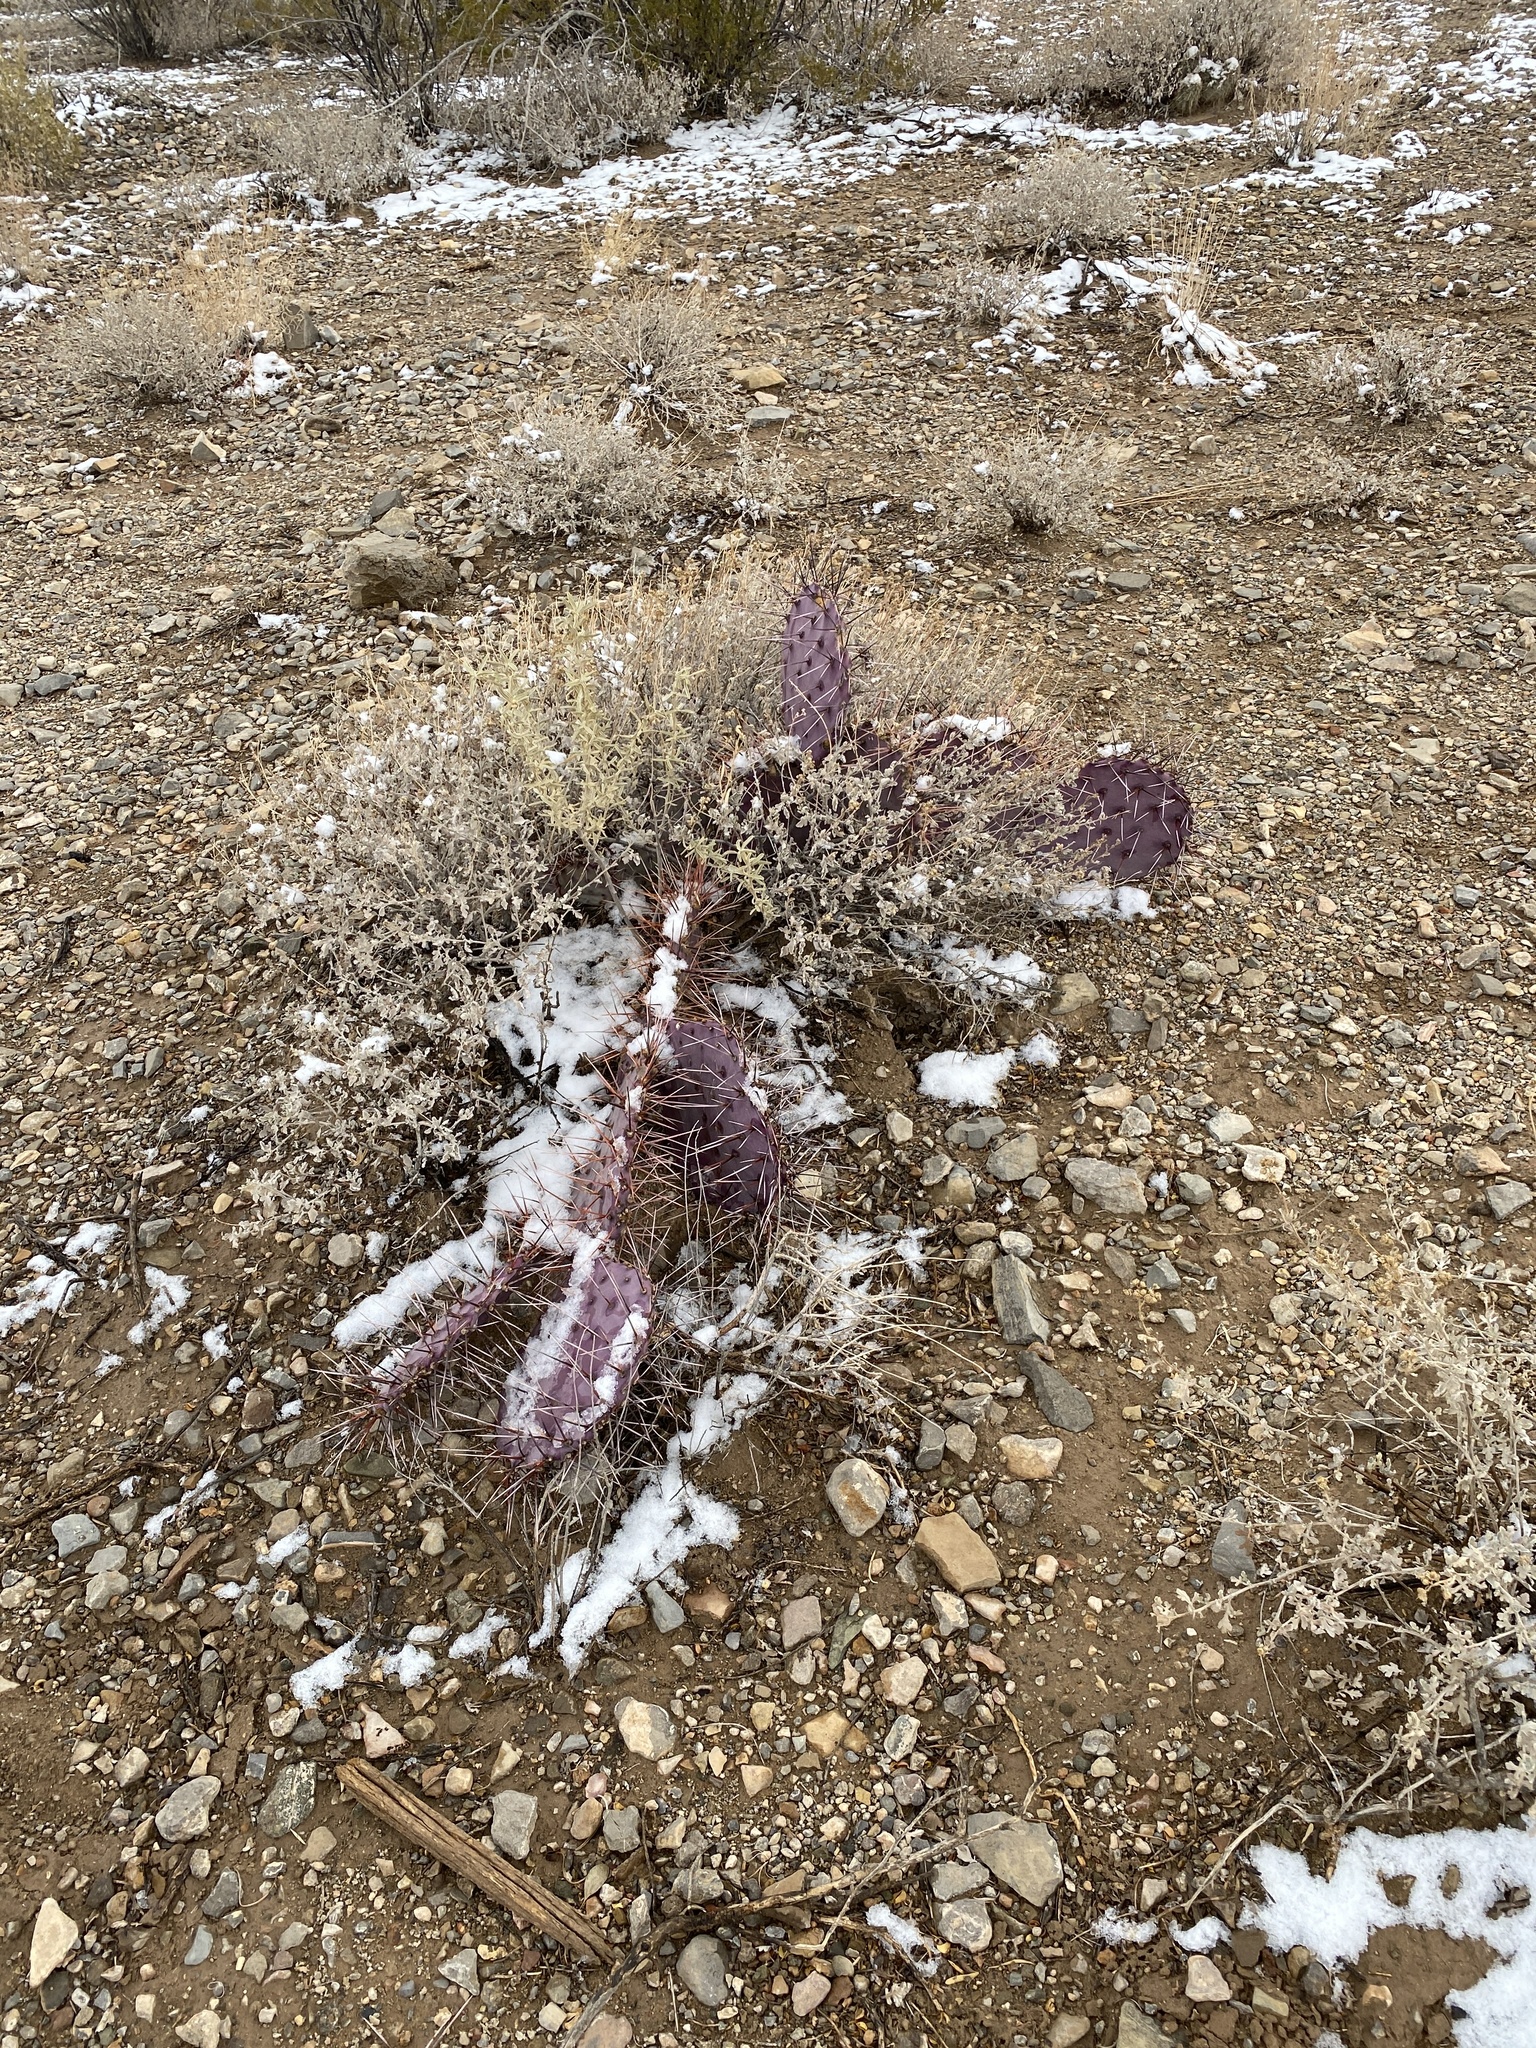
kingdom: Plantae
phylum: Tracheophyta
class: Magnoliopsida
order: Caryophyllales
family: Cactaceae
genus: Opuntia
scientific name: Opuntia macrocentra
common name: Purple prickly-pear
